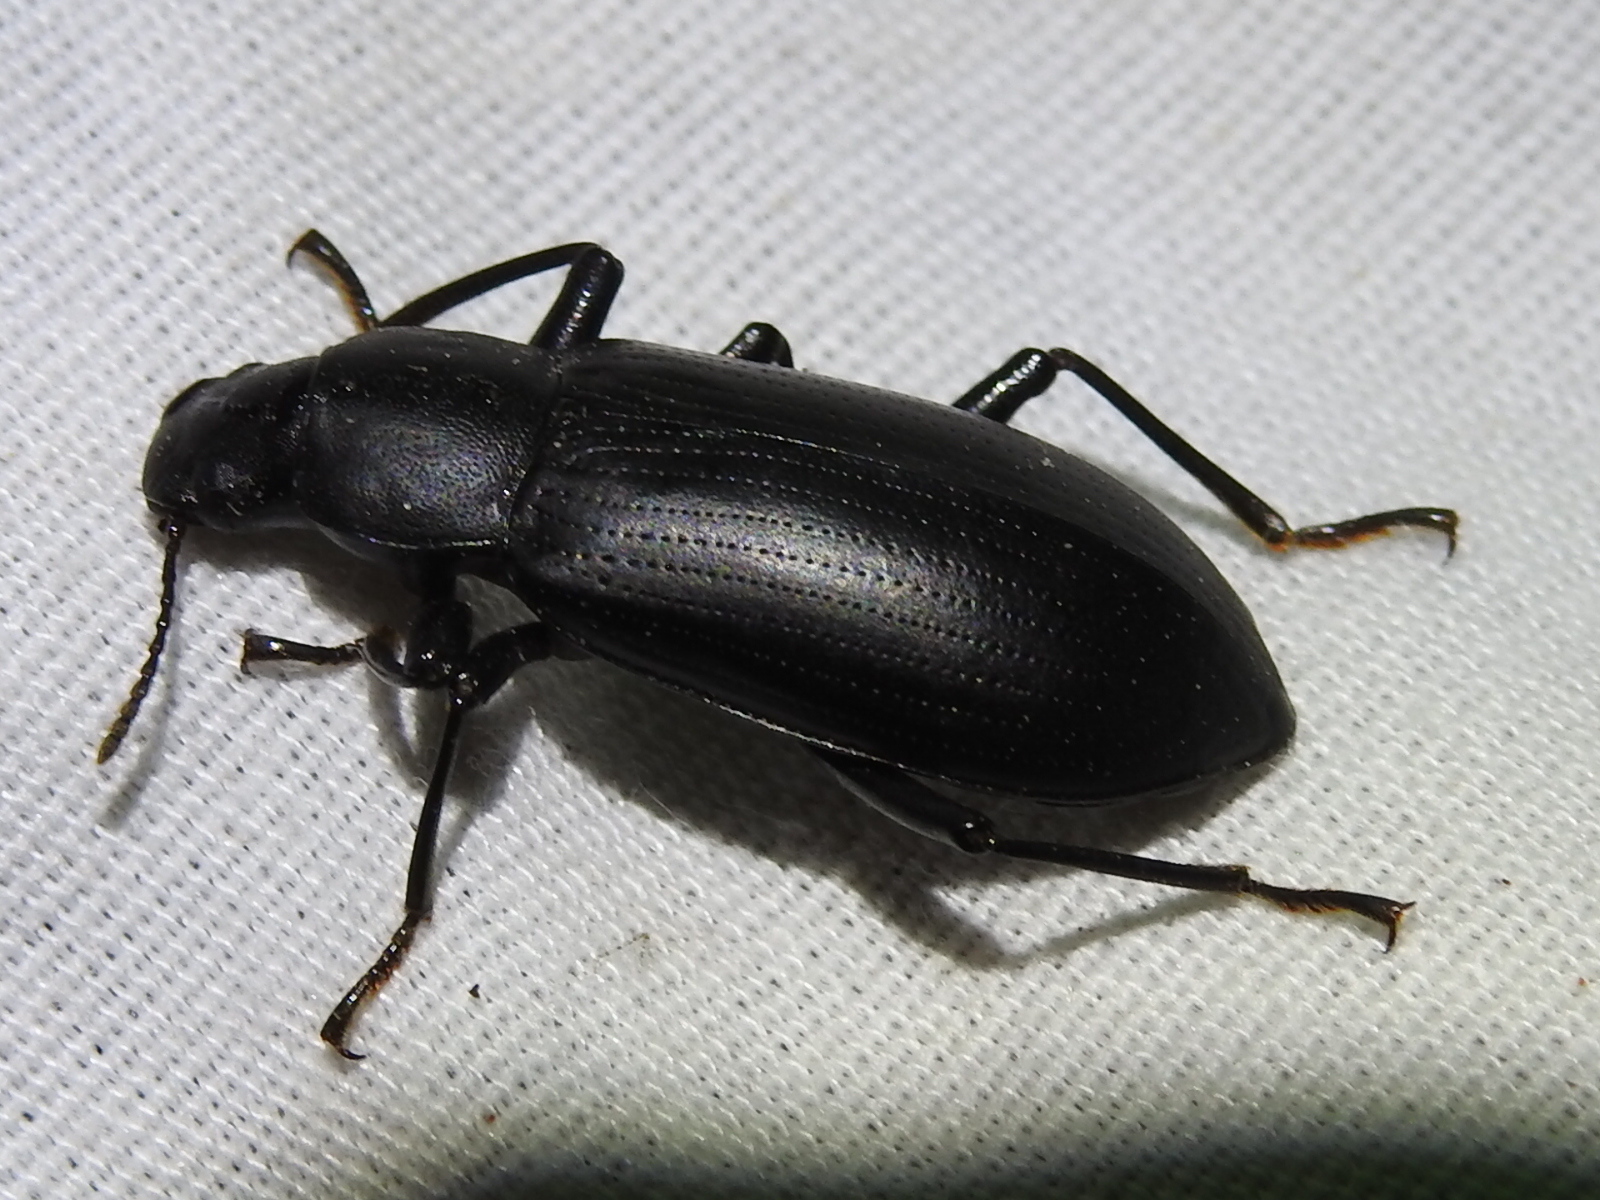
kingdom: Animalia
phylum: Arthropoda
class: Insecta
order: Coleoptera
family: Tenebrionidae
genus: Alobates
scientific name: Alobates pensylvanicus
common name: False mealworm beetle
